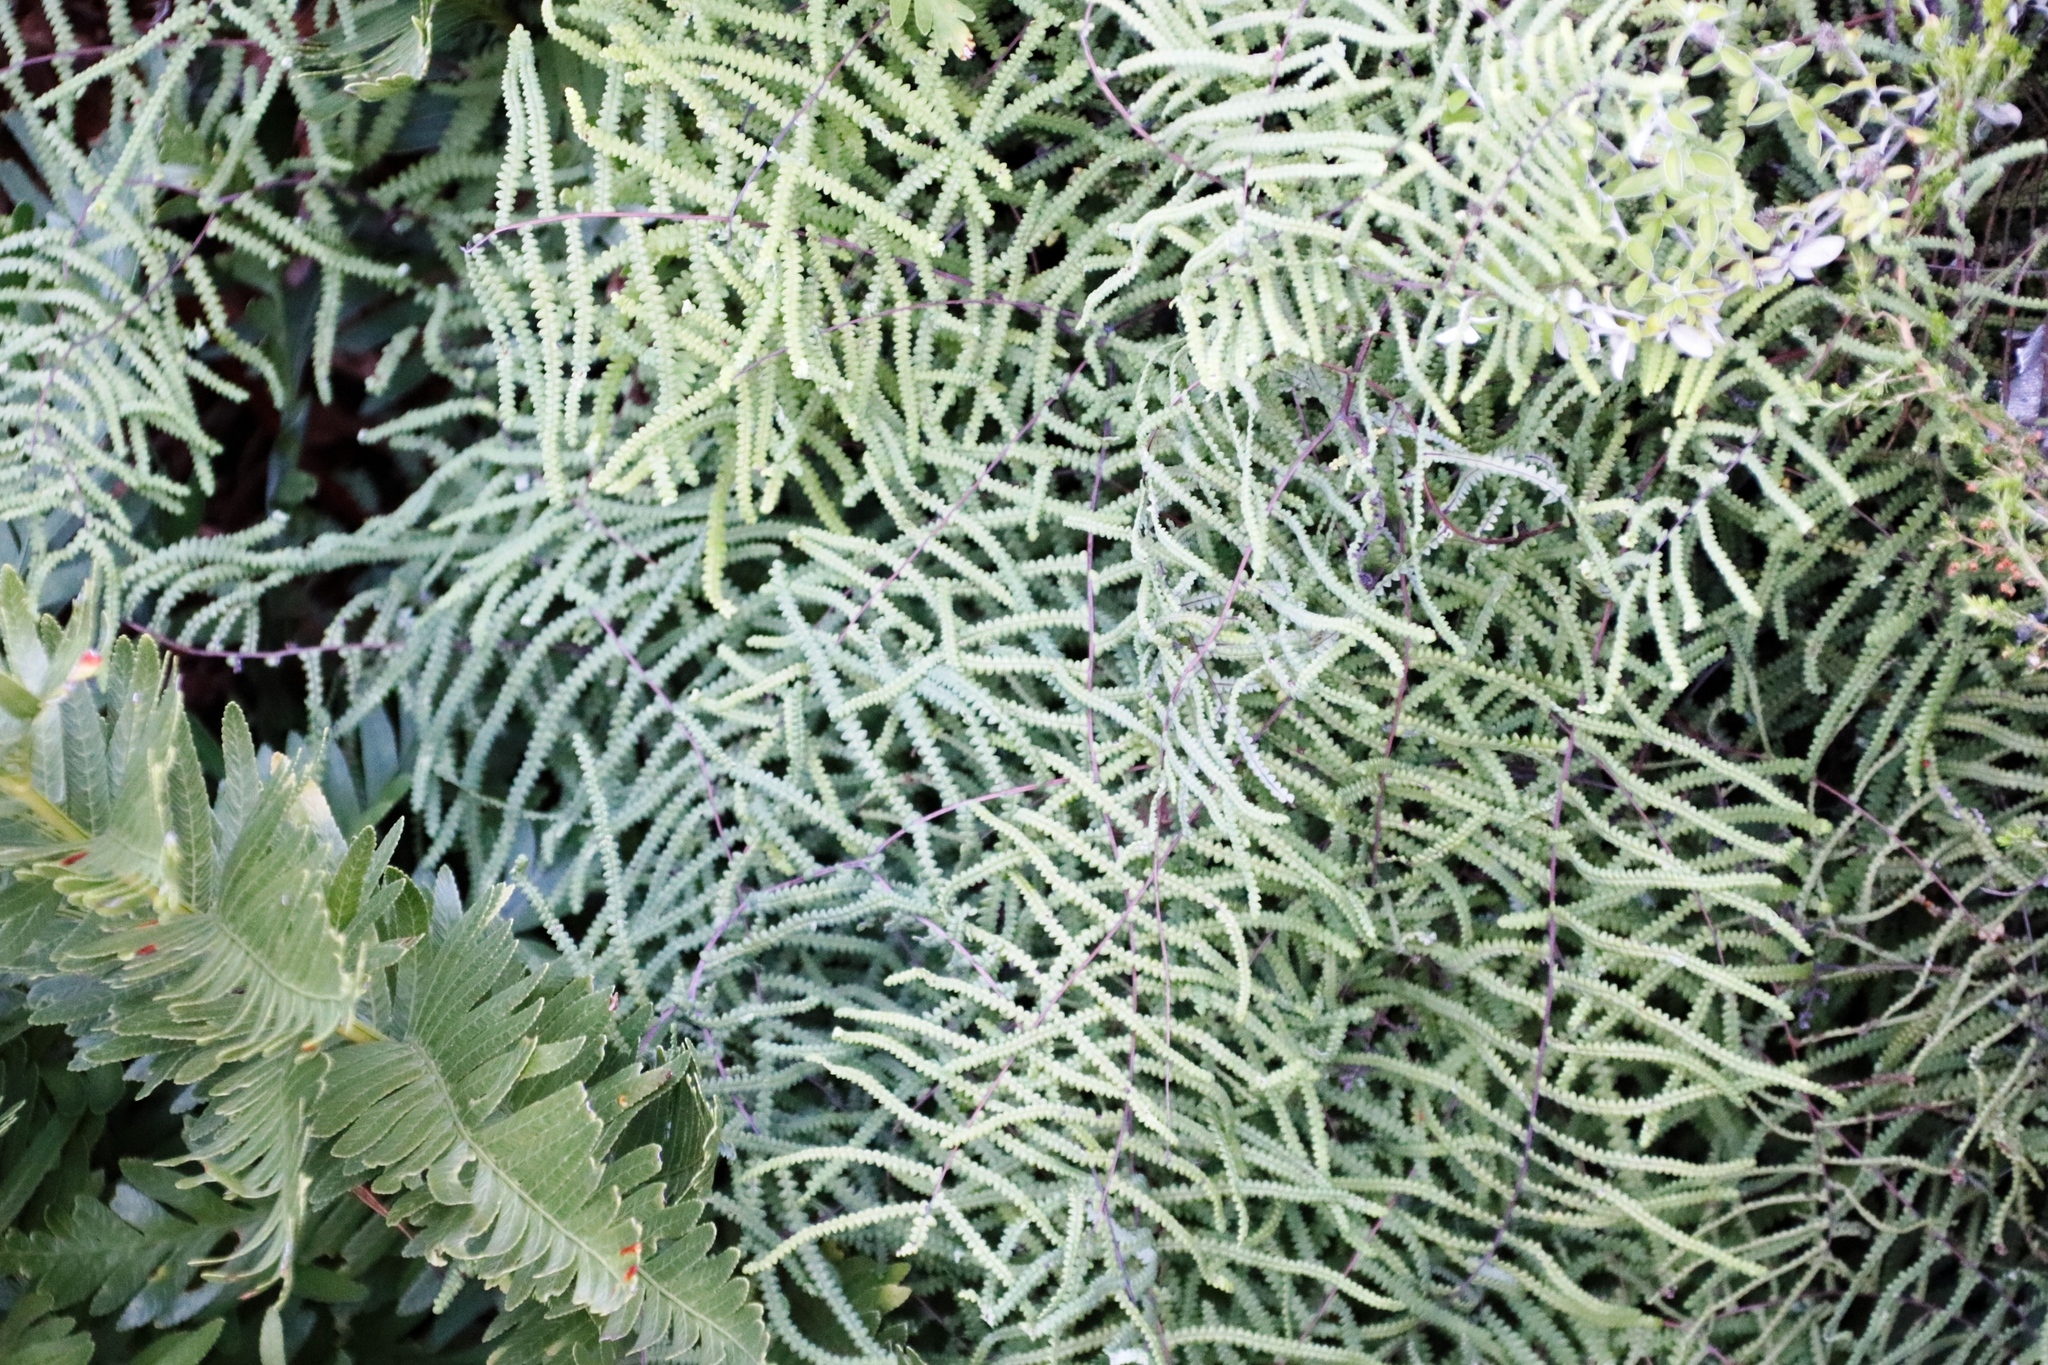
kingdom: Plantae
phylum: Tracheophyta
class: Polypodiopsida
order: Gleicheniales
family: Gleicheniaceae
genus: Gleichenia
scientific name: Gleichenia polypodioides
